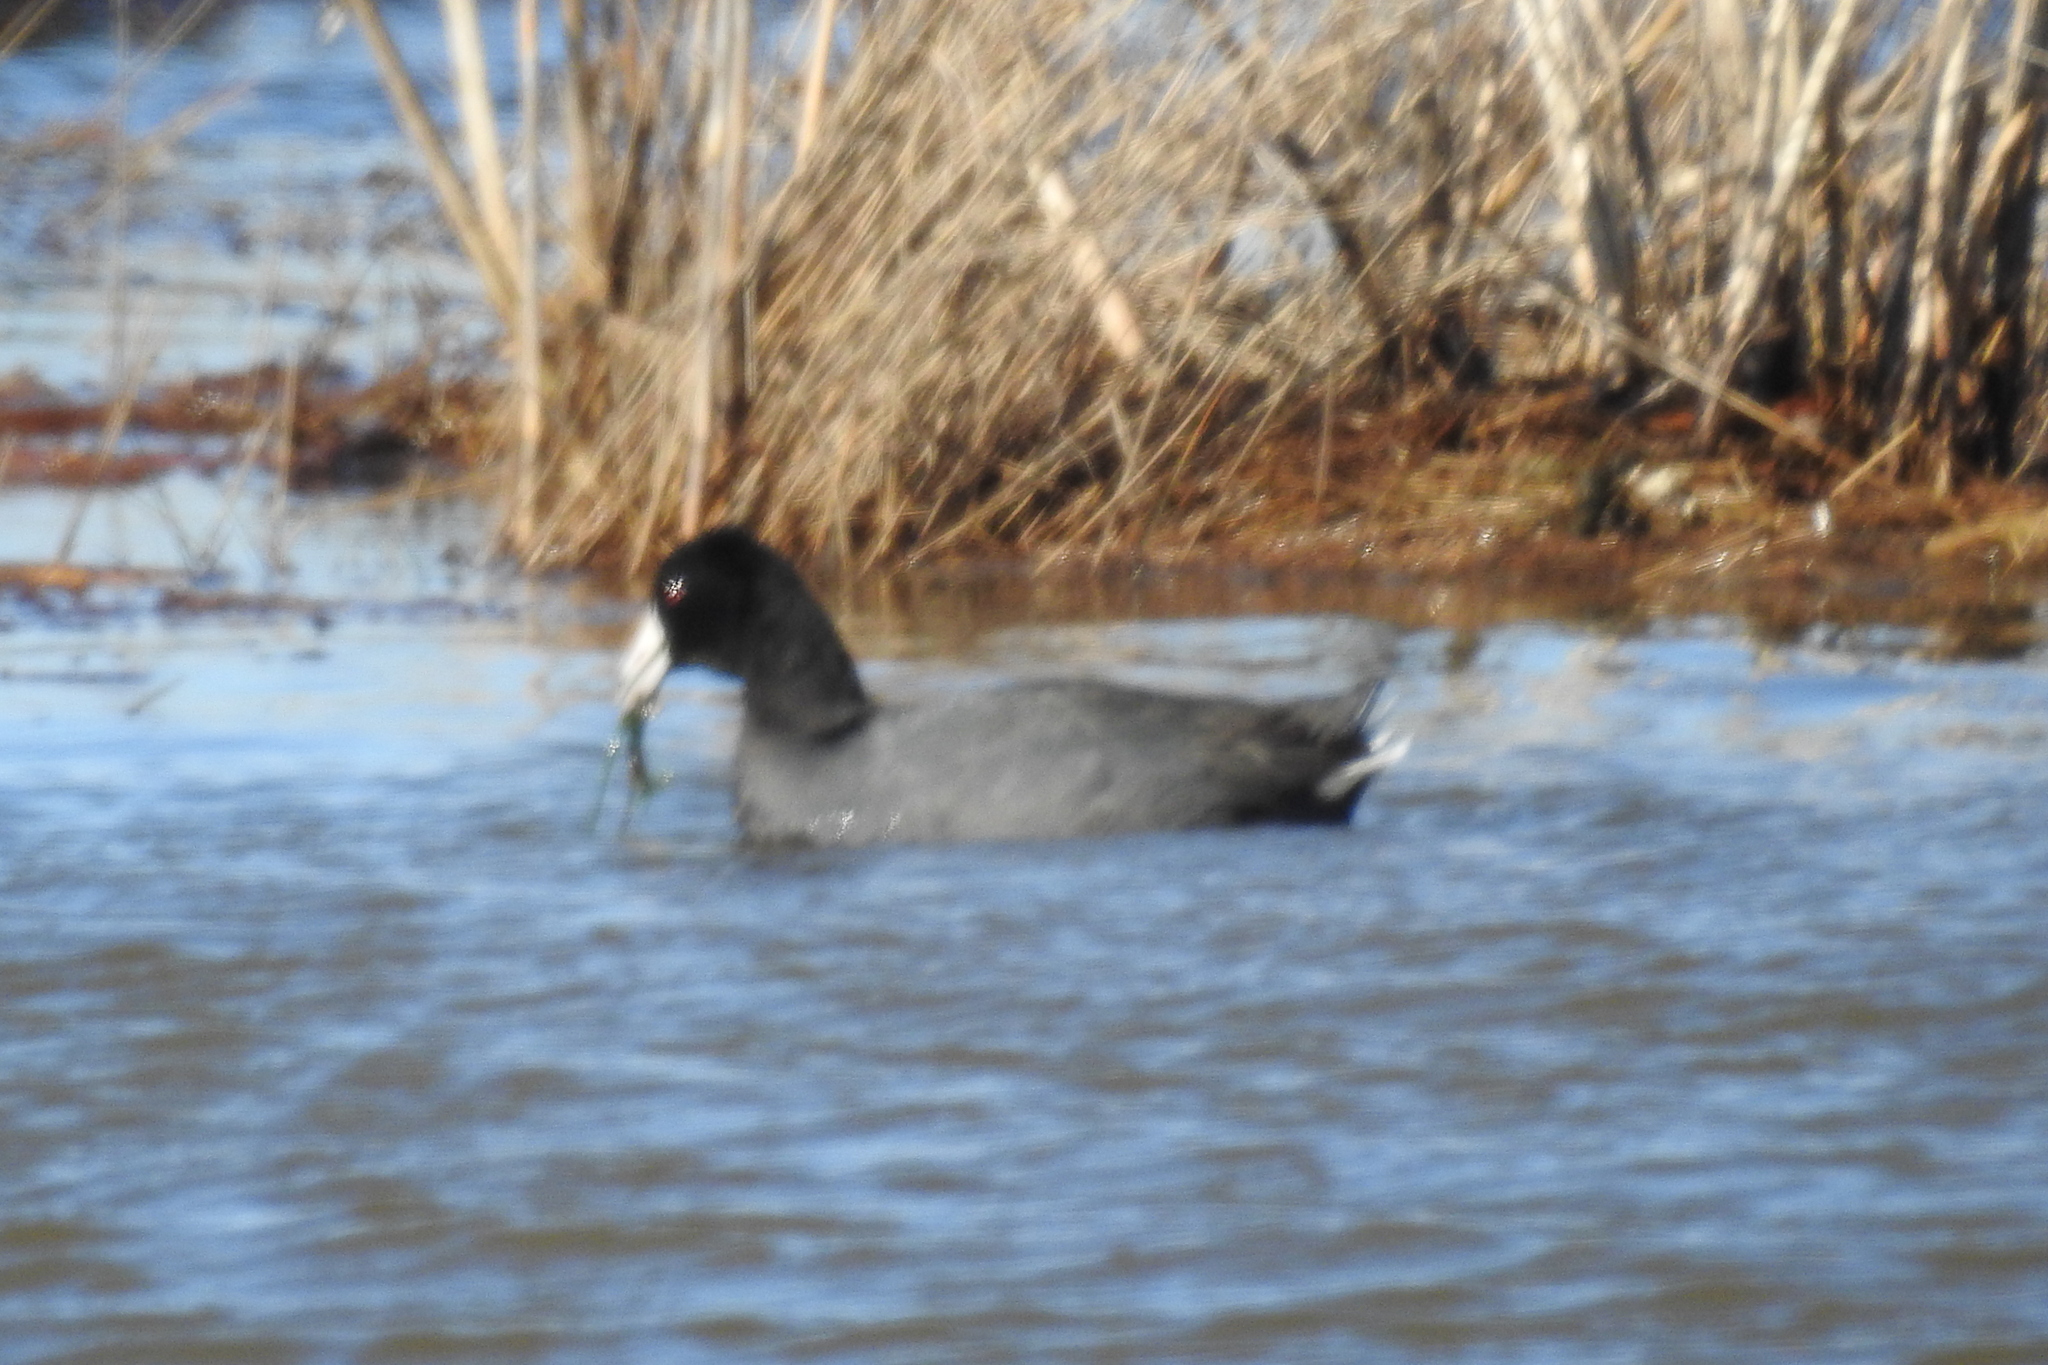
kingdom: Animalia
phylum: Chordata
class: Aves
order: Gruiformes
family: Rallidae
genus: Fulica
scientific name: Fulica americana
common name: American coot
